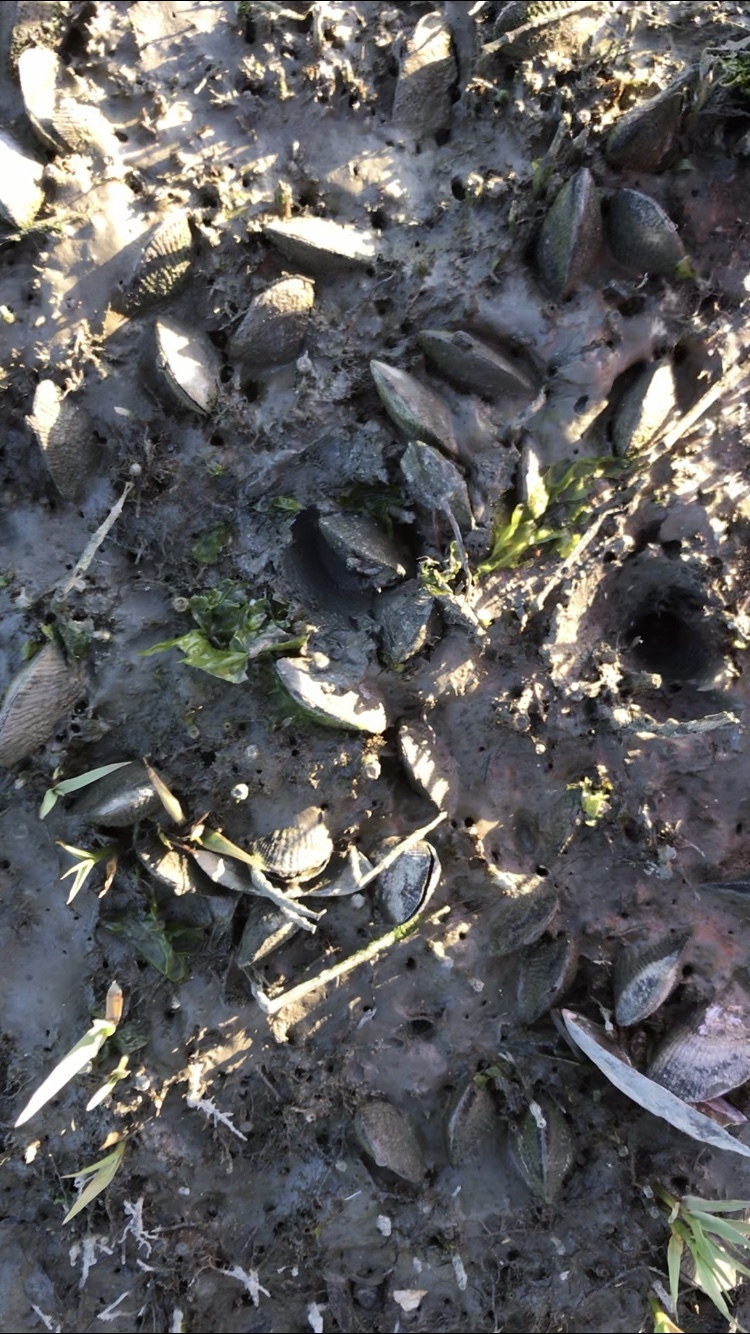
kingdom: Animalia
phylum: Mollusca
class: Bivalvia
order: Mytilida
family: Mytilidae
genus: Geukensia
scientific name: Geukensia demissa
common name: Ribbed mussel
